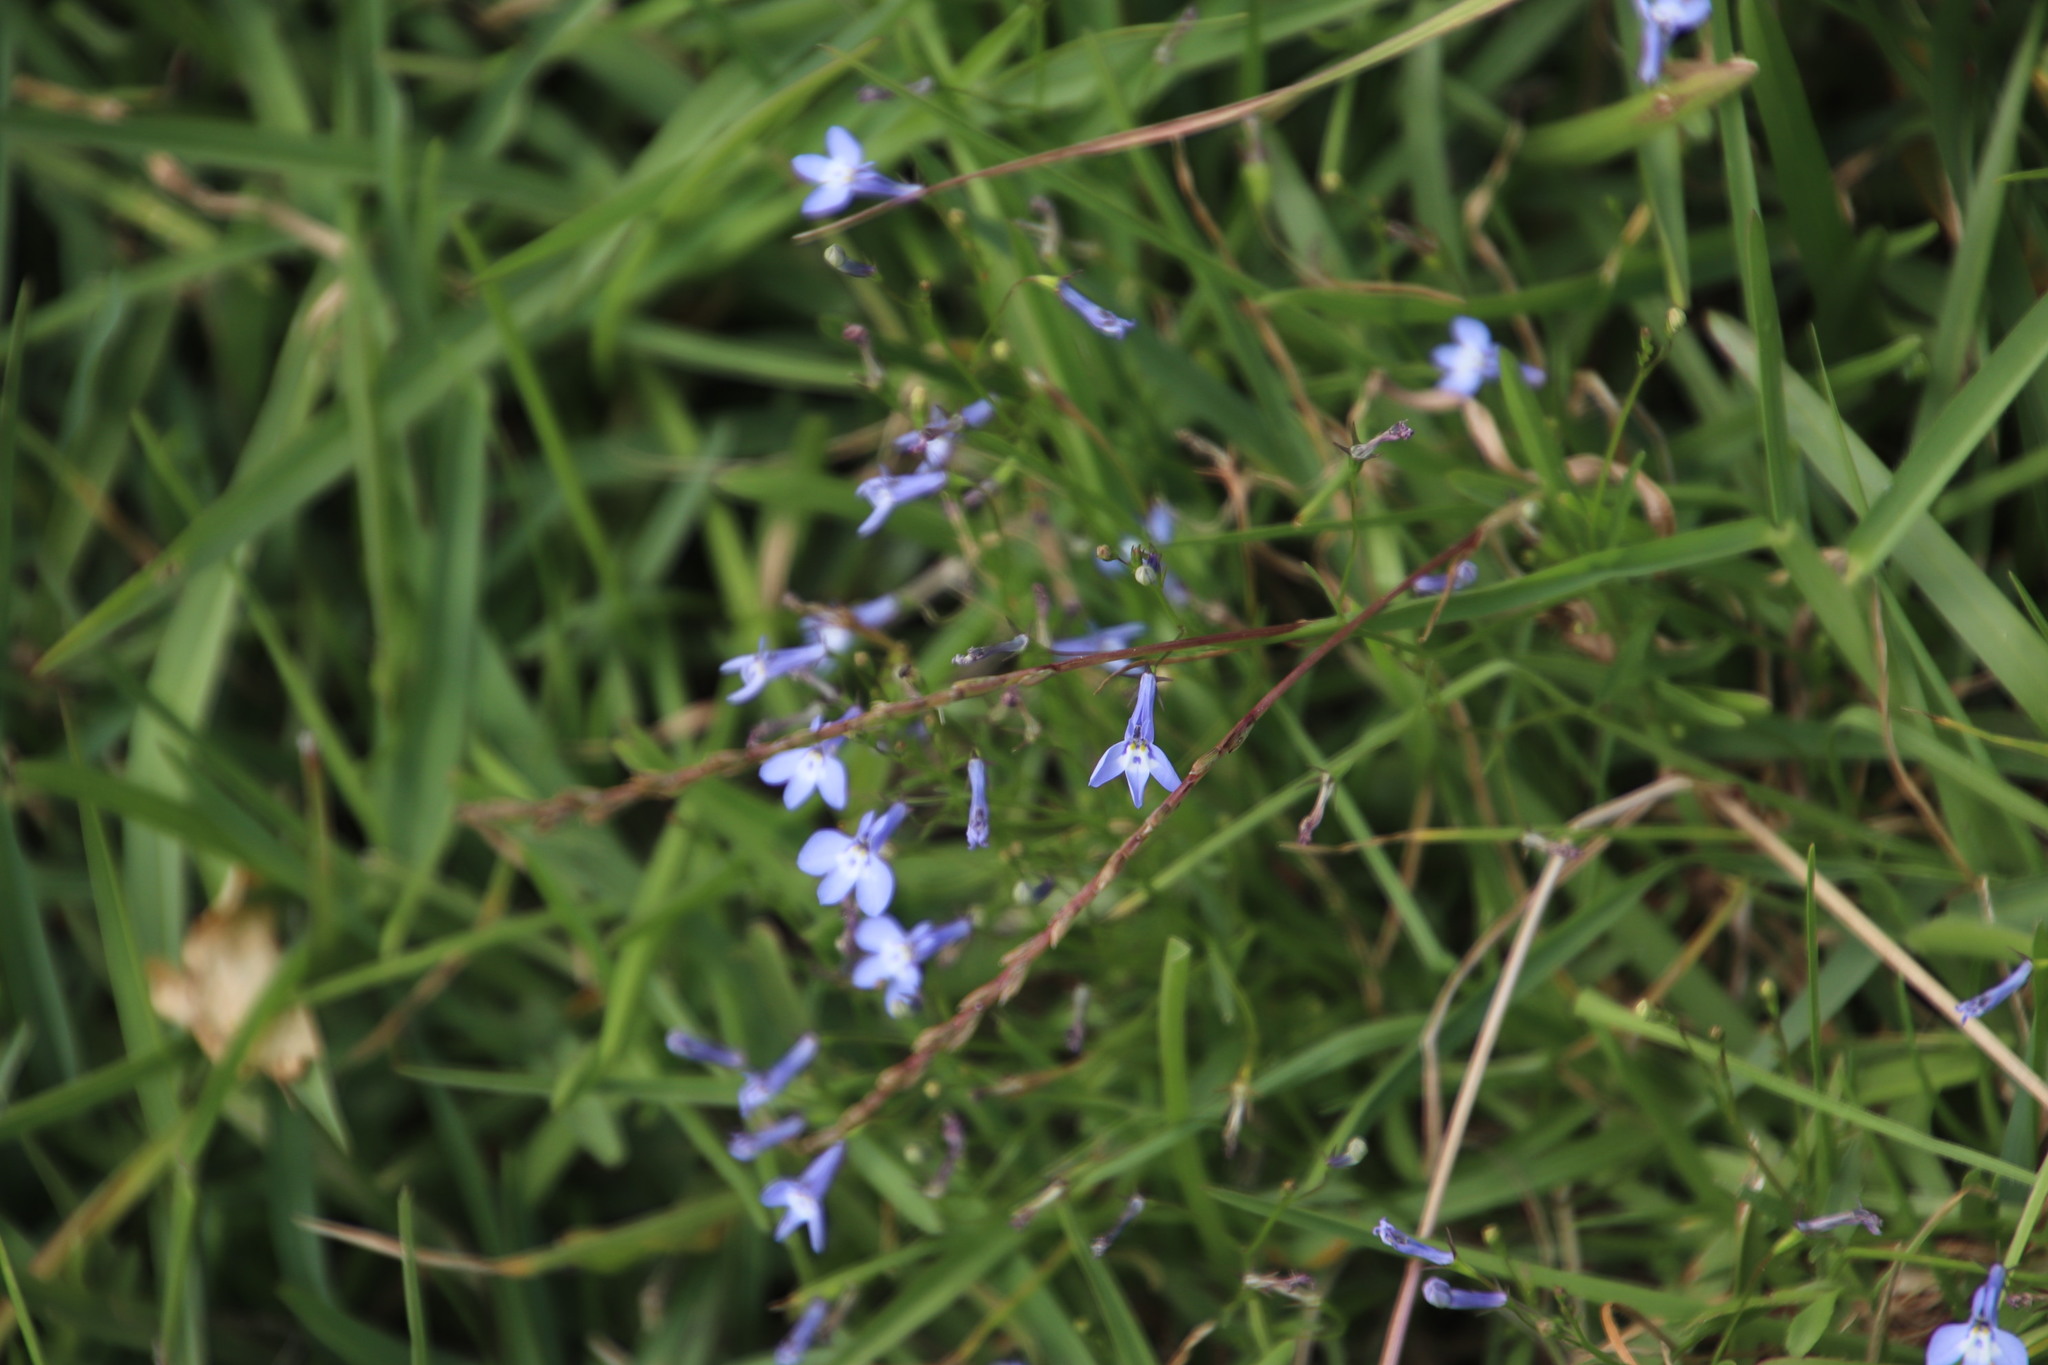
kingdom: Plantae
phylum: Tracheophyta
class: Magnoliopsida
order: Asterales
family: Campanulaceae
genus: Lobelia
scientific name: Lobelia erinus
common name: Edging lobelia
